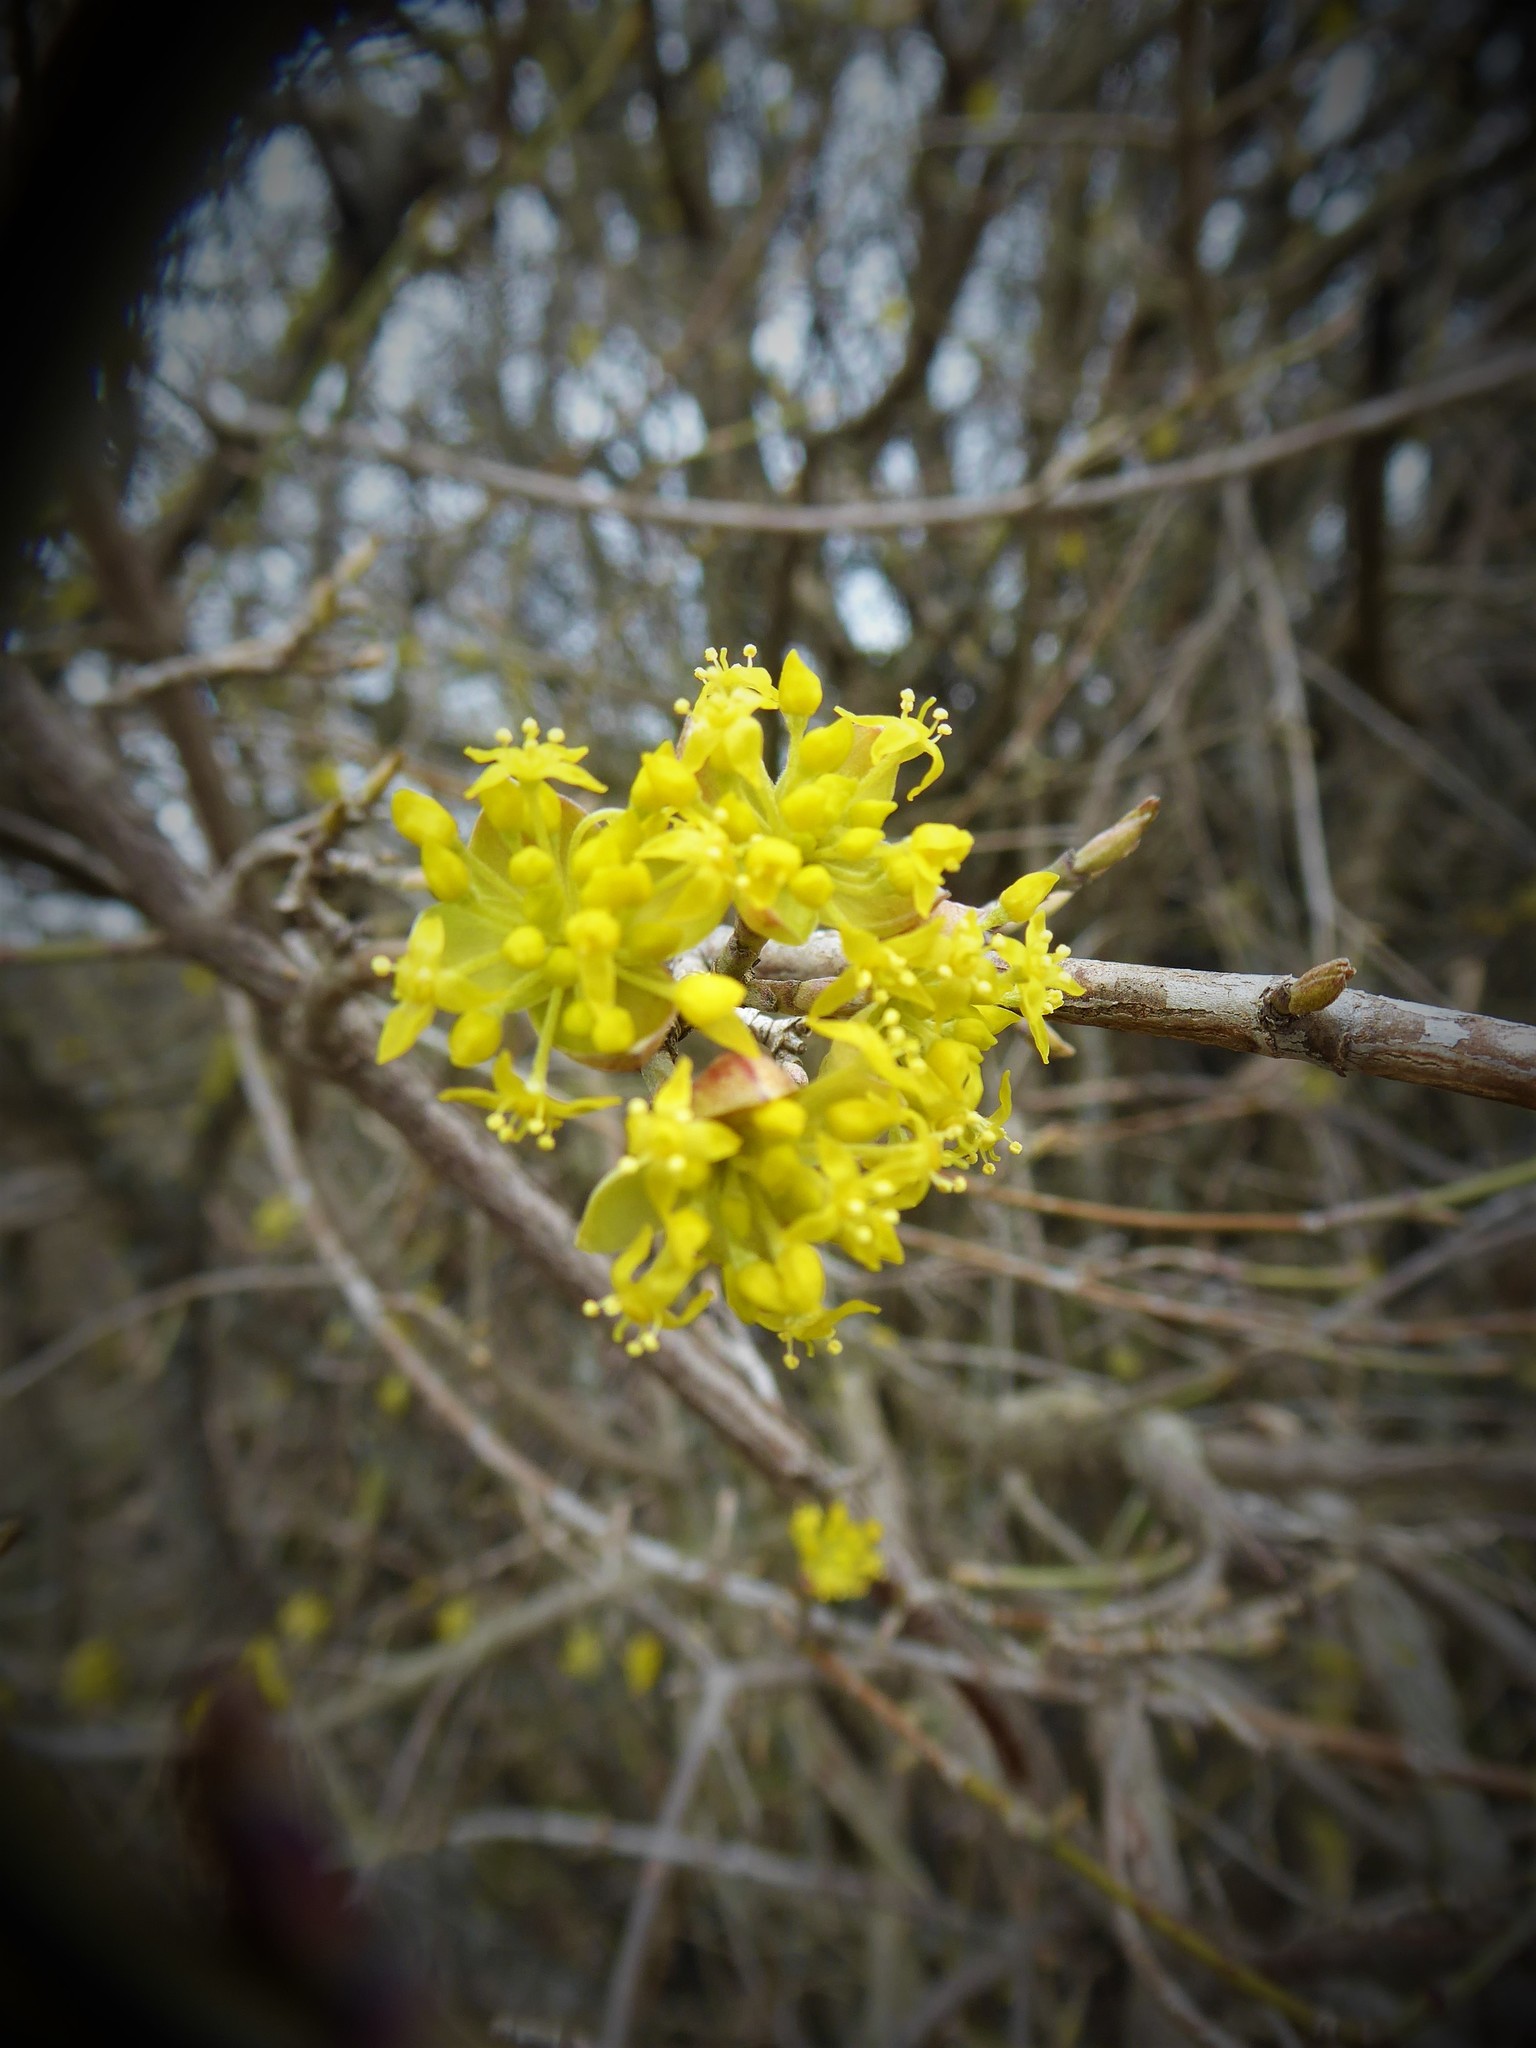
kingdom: Plantae
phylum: Tracheophyta
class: Magnoliopsida
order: Cornales
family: Cornaceae
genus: Cornus
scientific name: Cornus mas
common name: Cornelian-cherry
